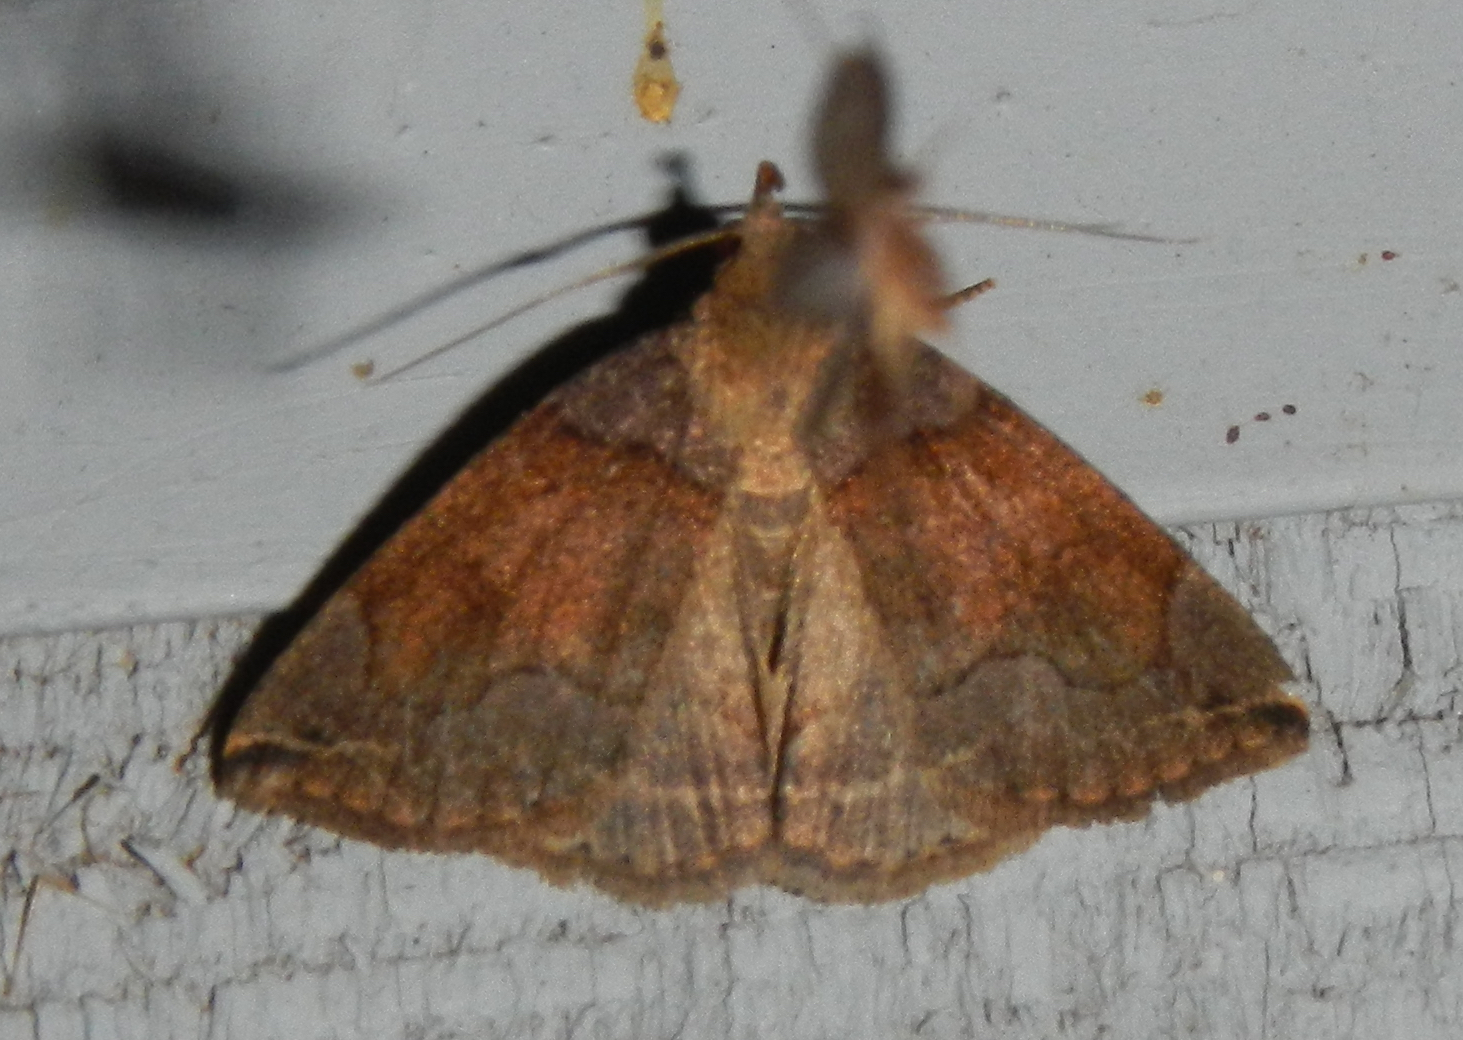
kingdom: Animalia
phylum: Arthropoda
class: Insecta
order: Lepidoptera
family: Erebidae
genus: Zanclognatha
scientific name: Zanclognatha laevigata
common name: Variable fan-foot
